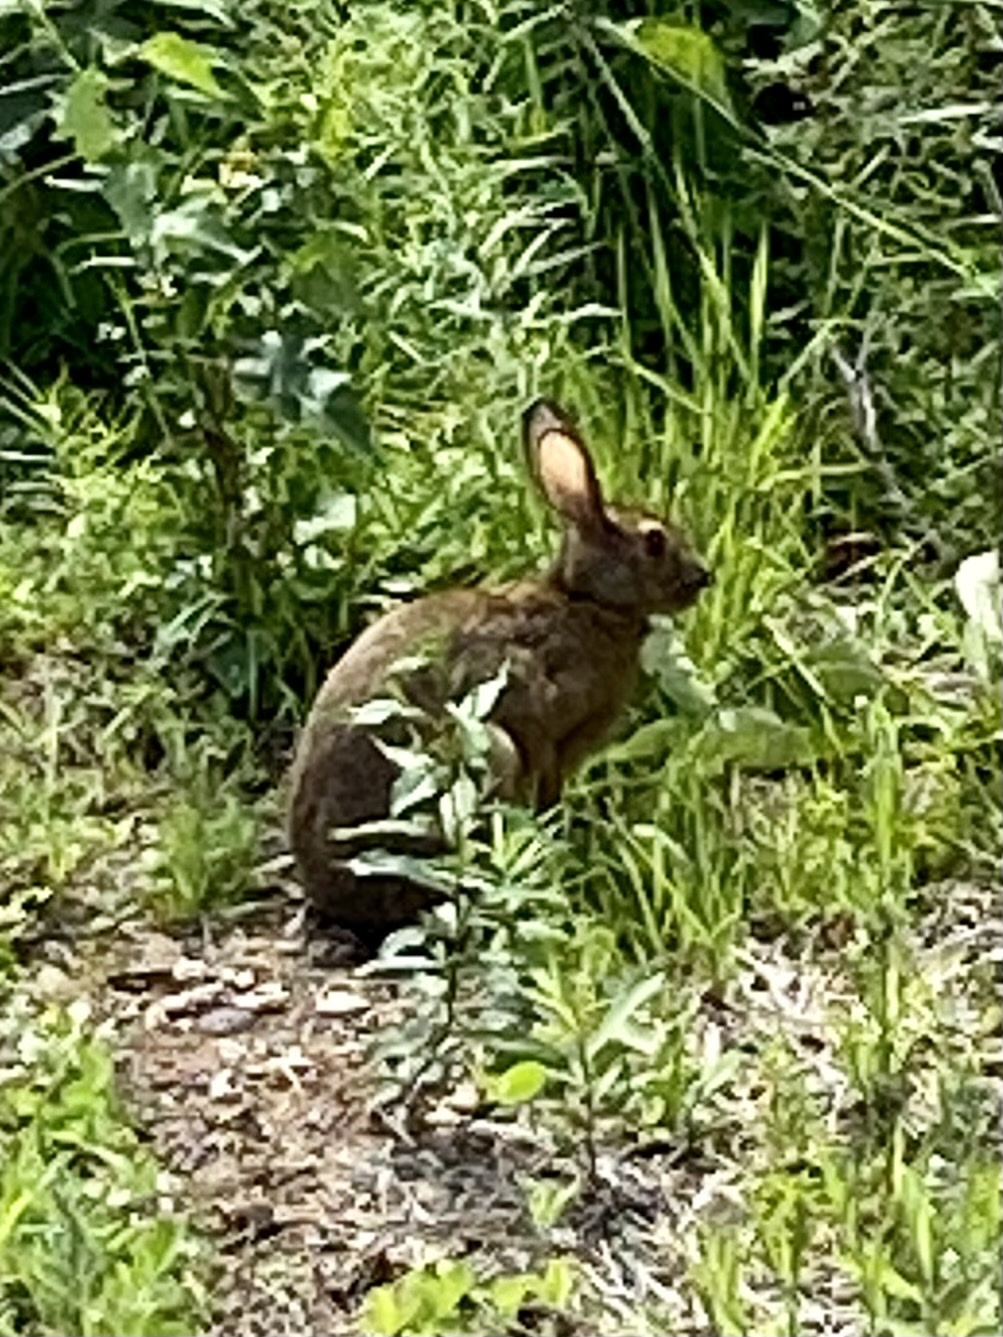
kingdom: Animalia
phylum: Chordata
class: Mammalia
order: Lagomorpha
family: Leporidae
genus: Lepus
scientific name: Lepus americanus
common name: Snowshoe hare
